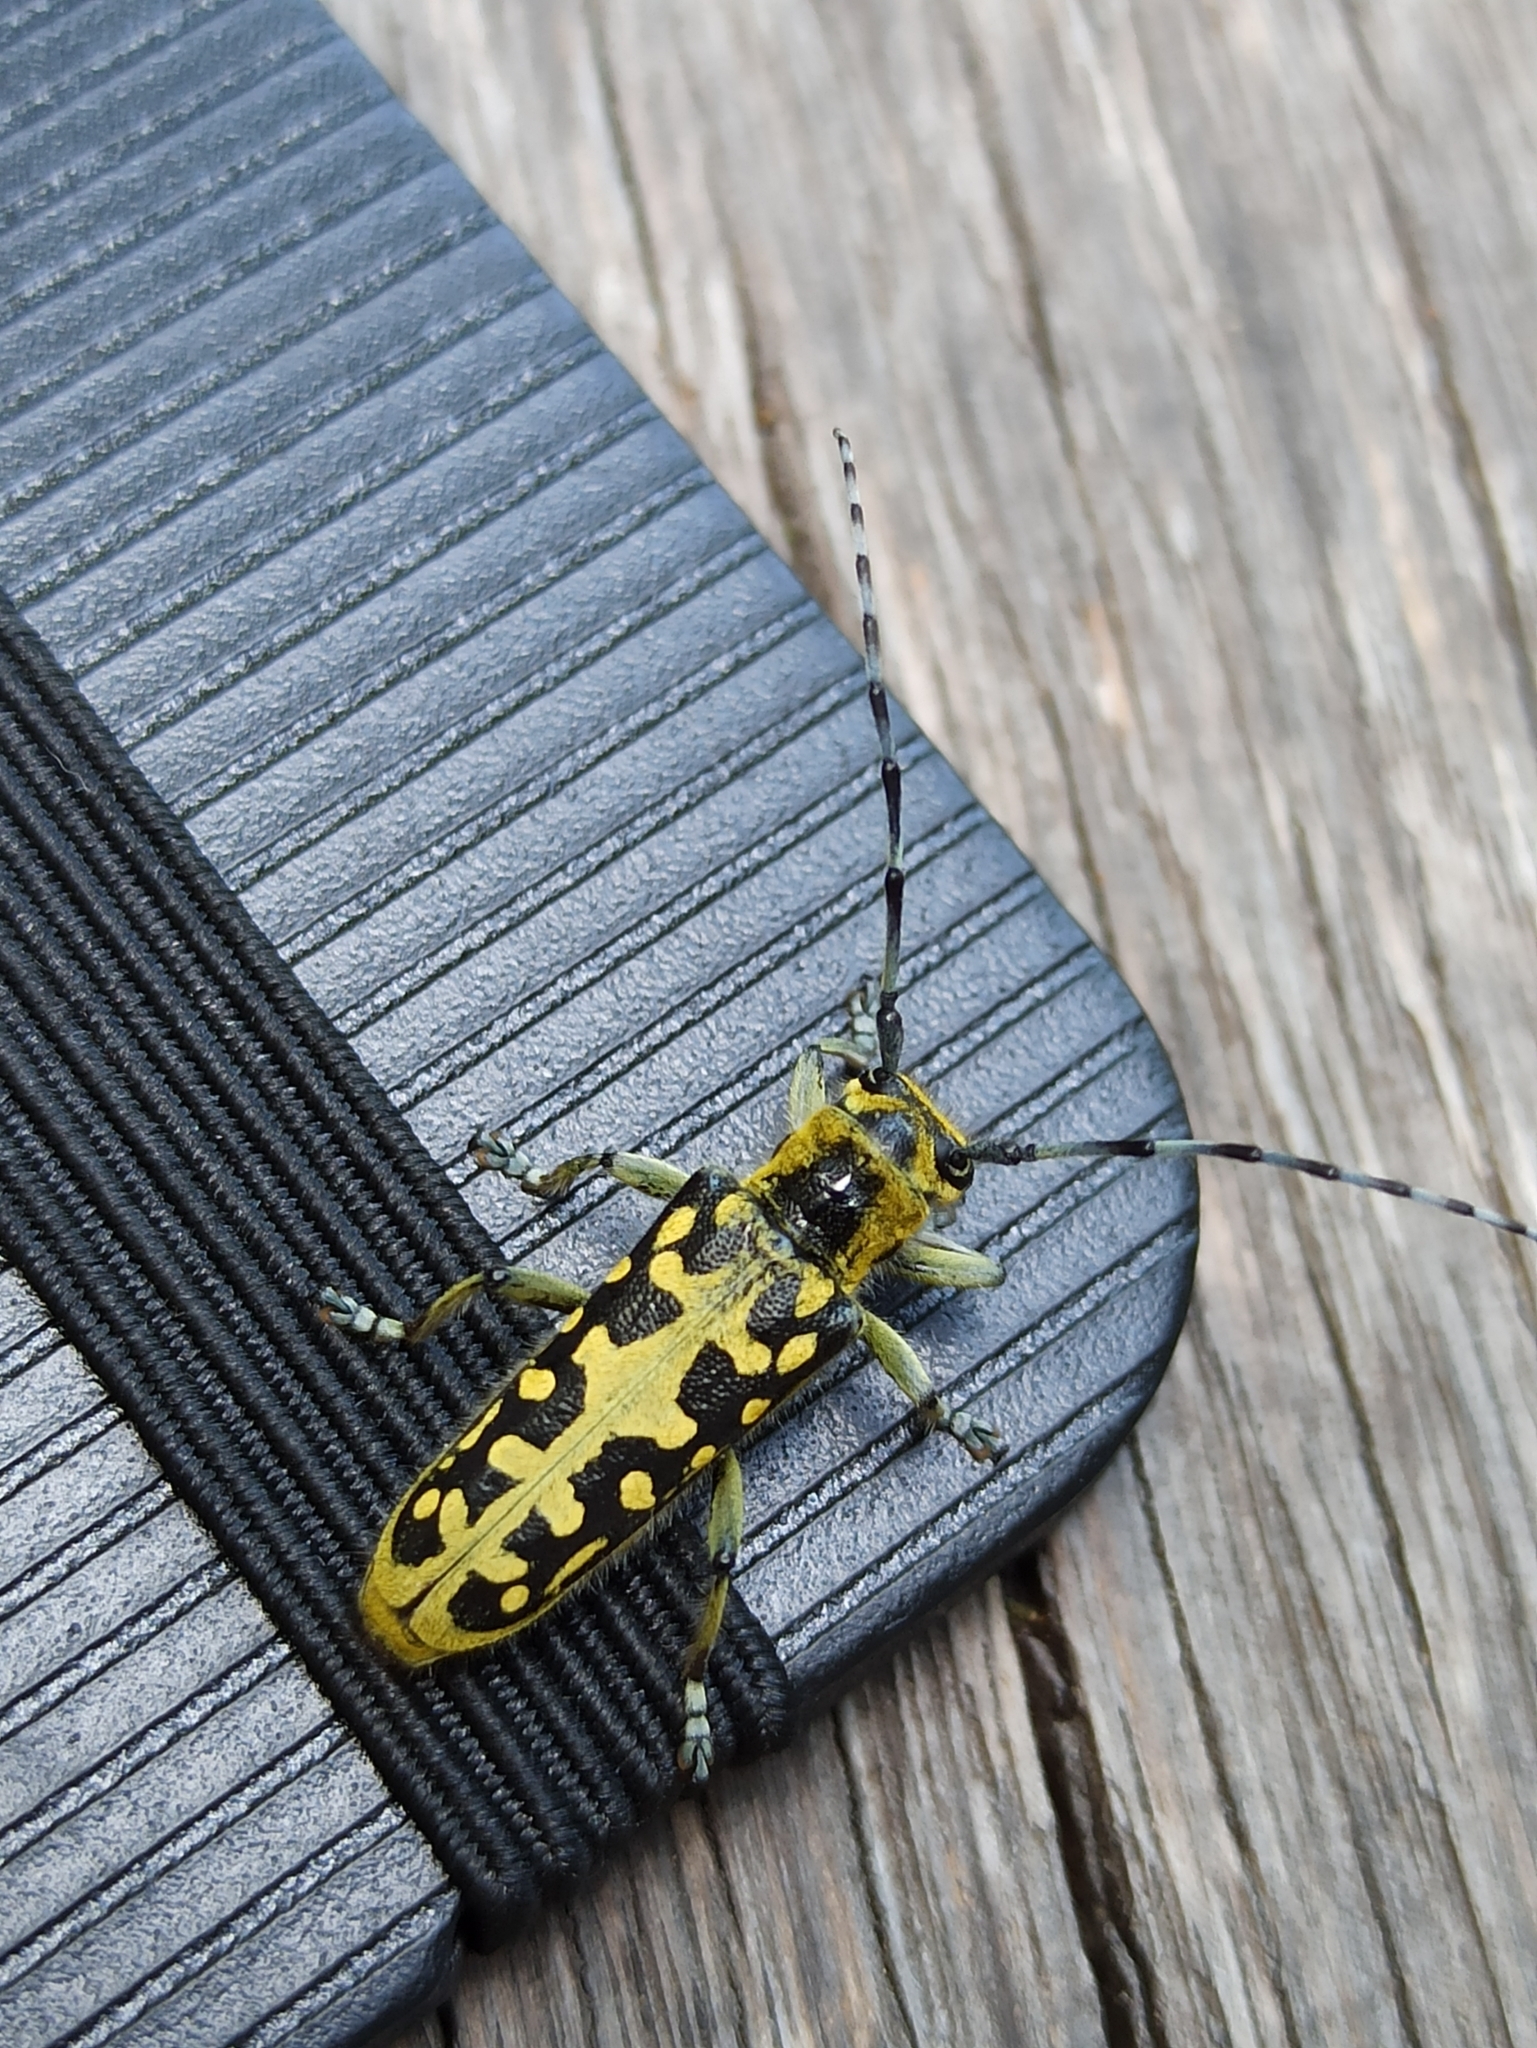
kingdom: Animalia
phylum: Arthropoda
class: Insecta
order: Coleoptera
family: Cerambycidae
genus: Saperda
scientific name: Saperda scalaris
